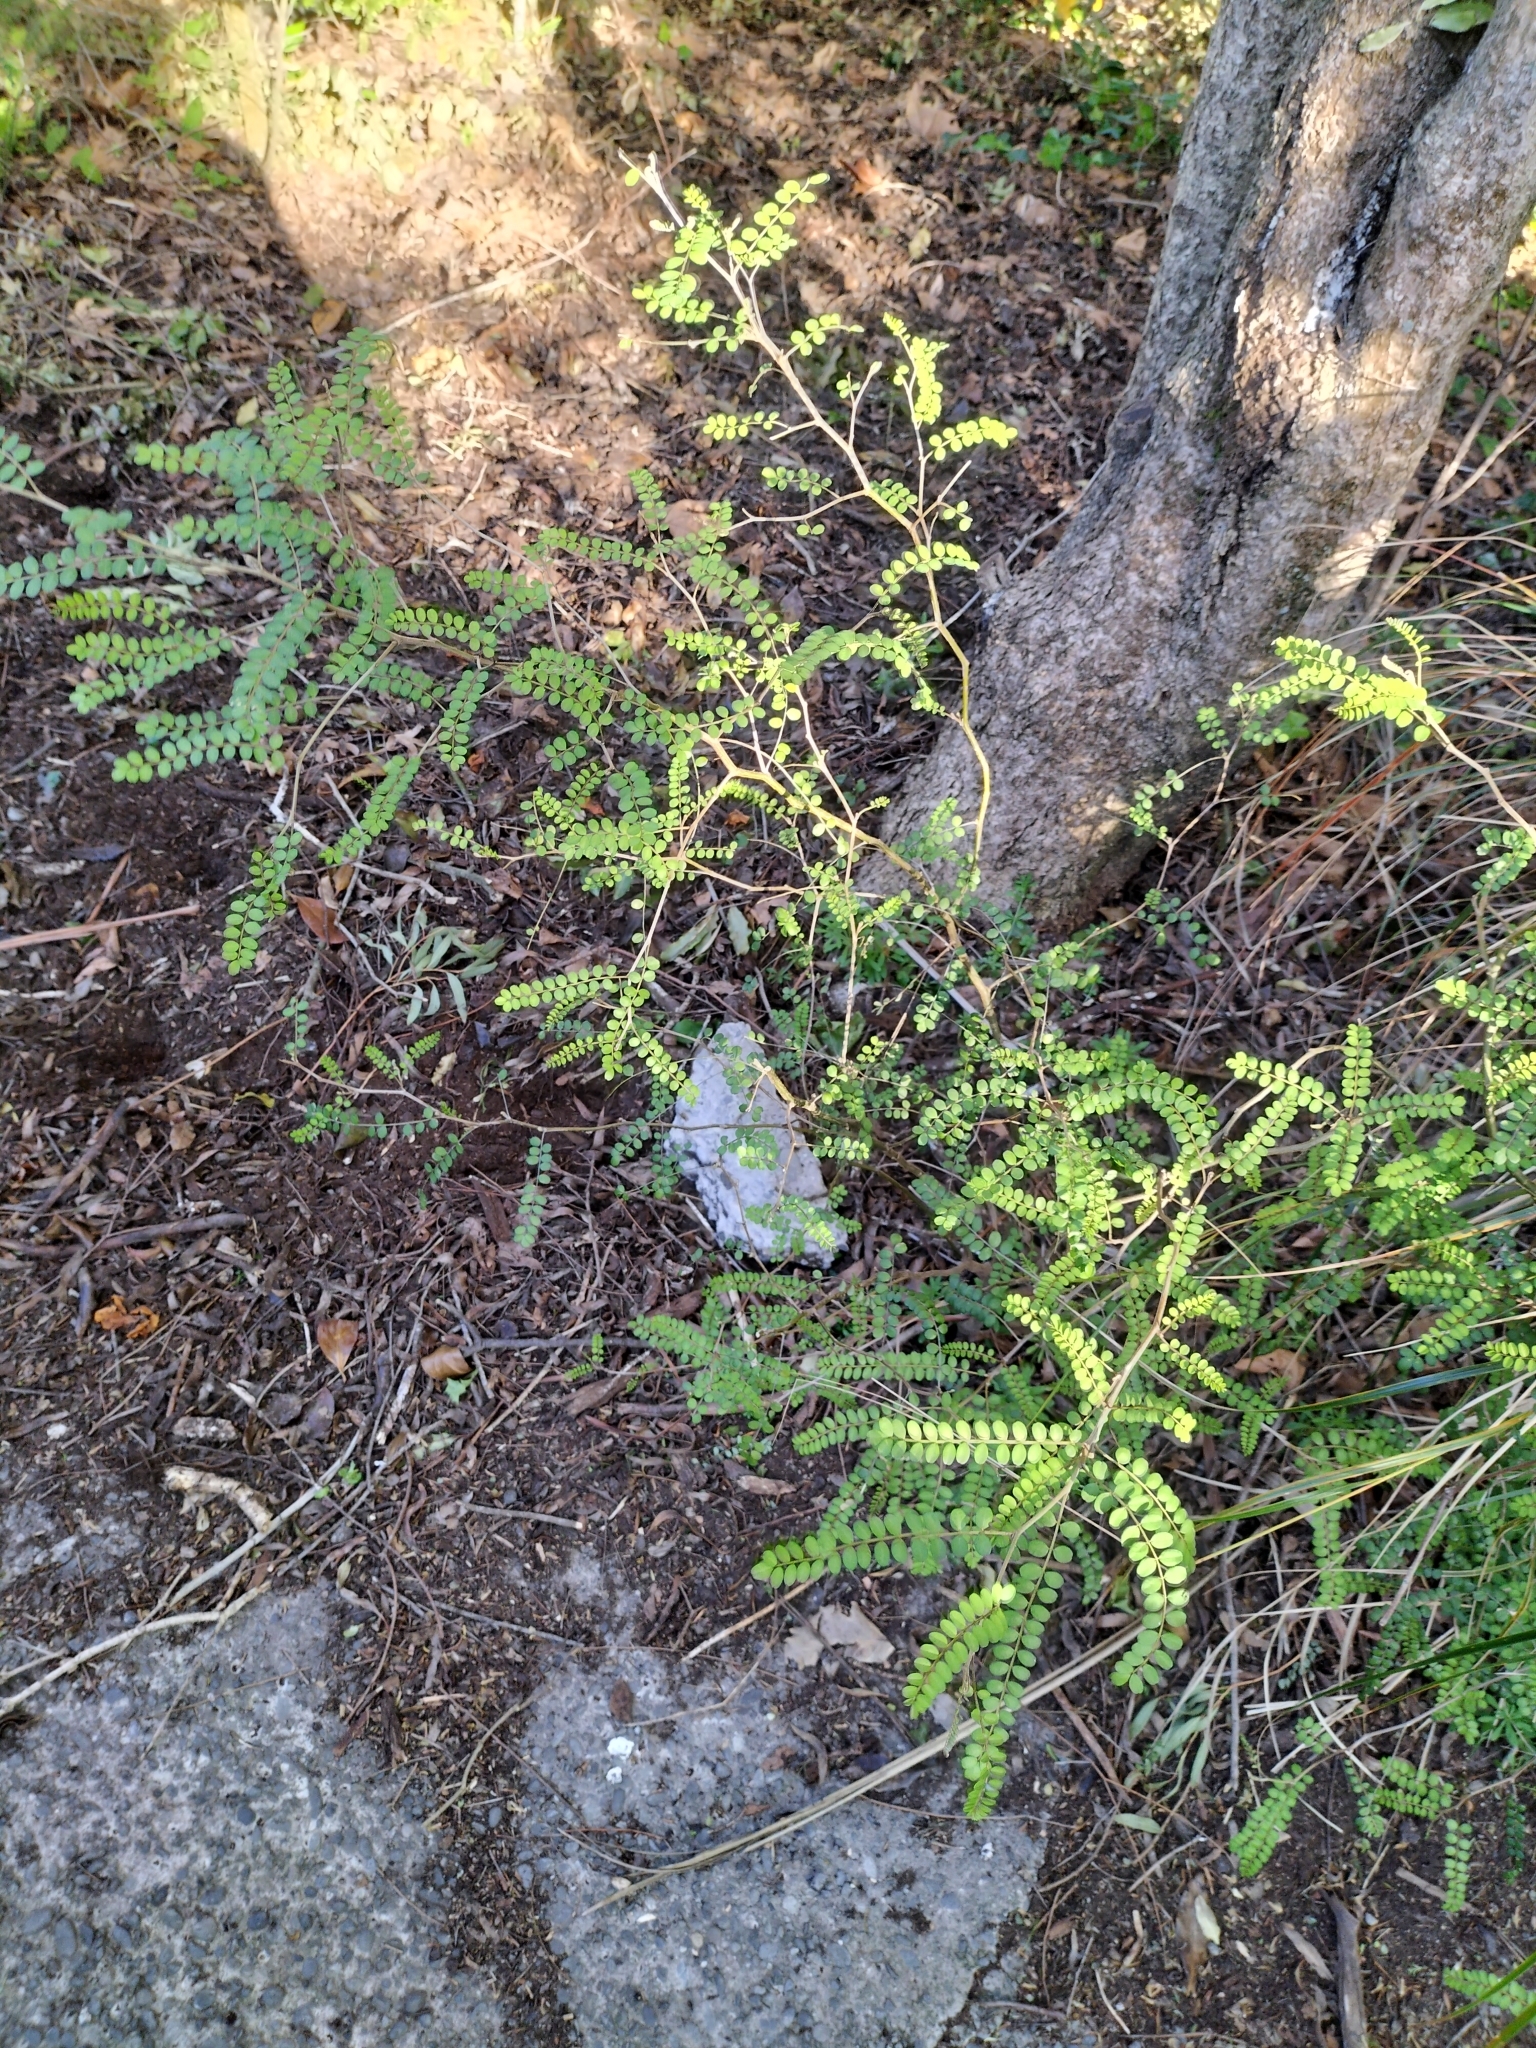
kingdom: Plantae
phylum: Tracheophyta
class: Magnoliopsida
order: Fabales
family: Fabaceae
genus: Sophora
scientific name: Sophora microphylla
